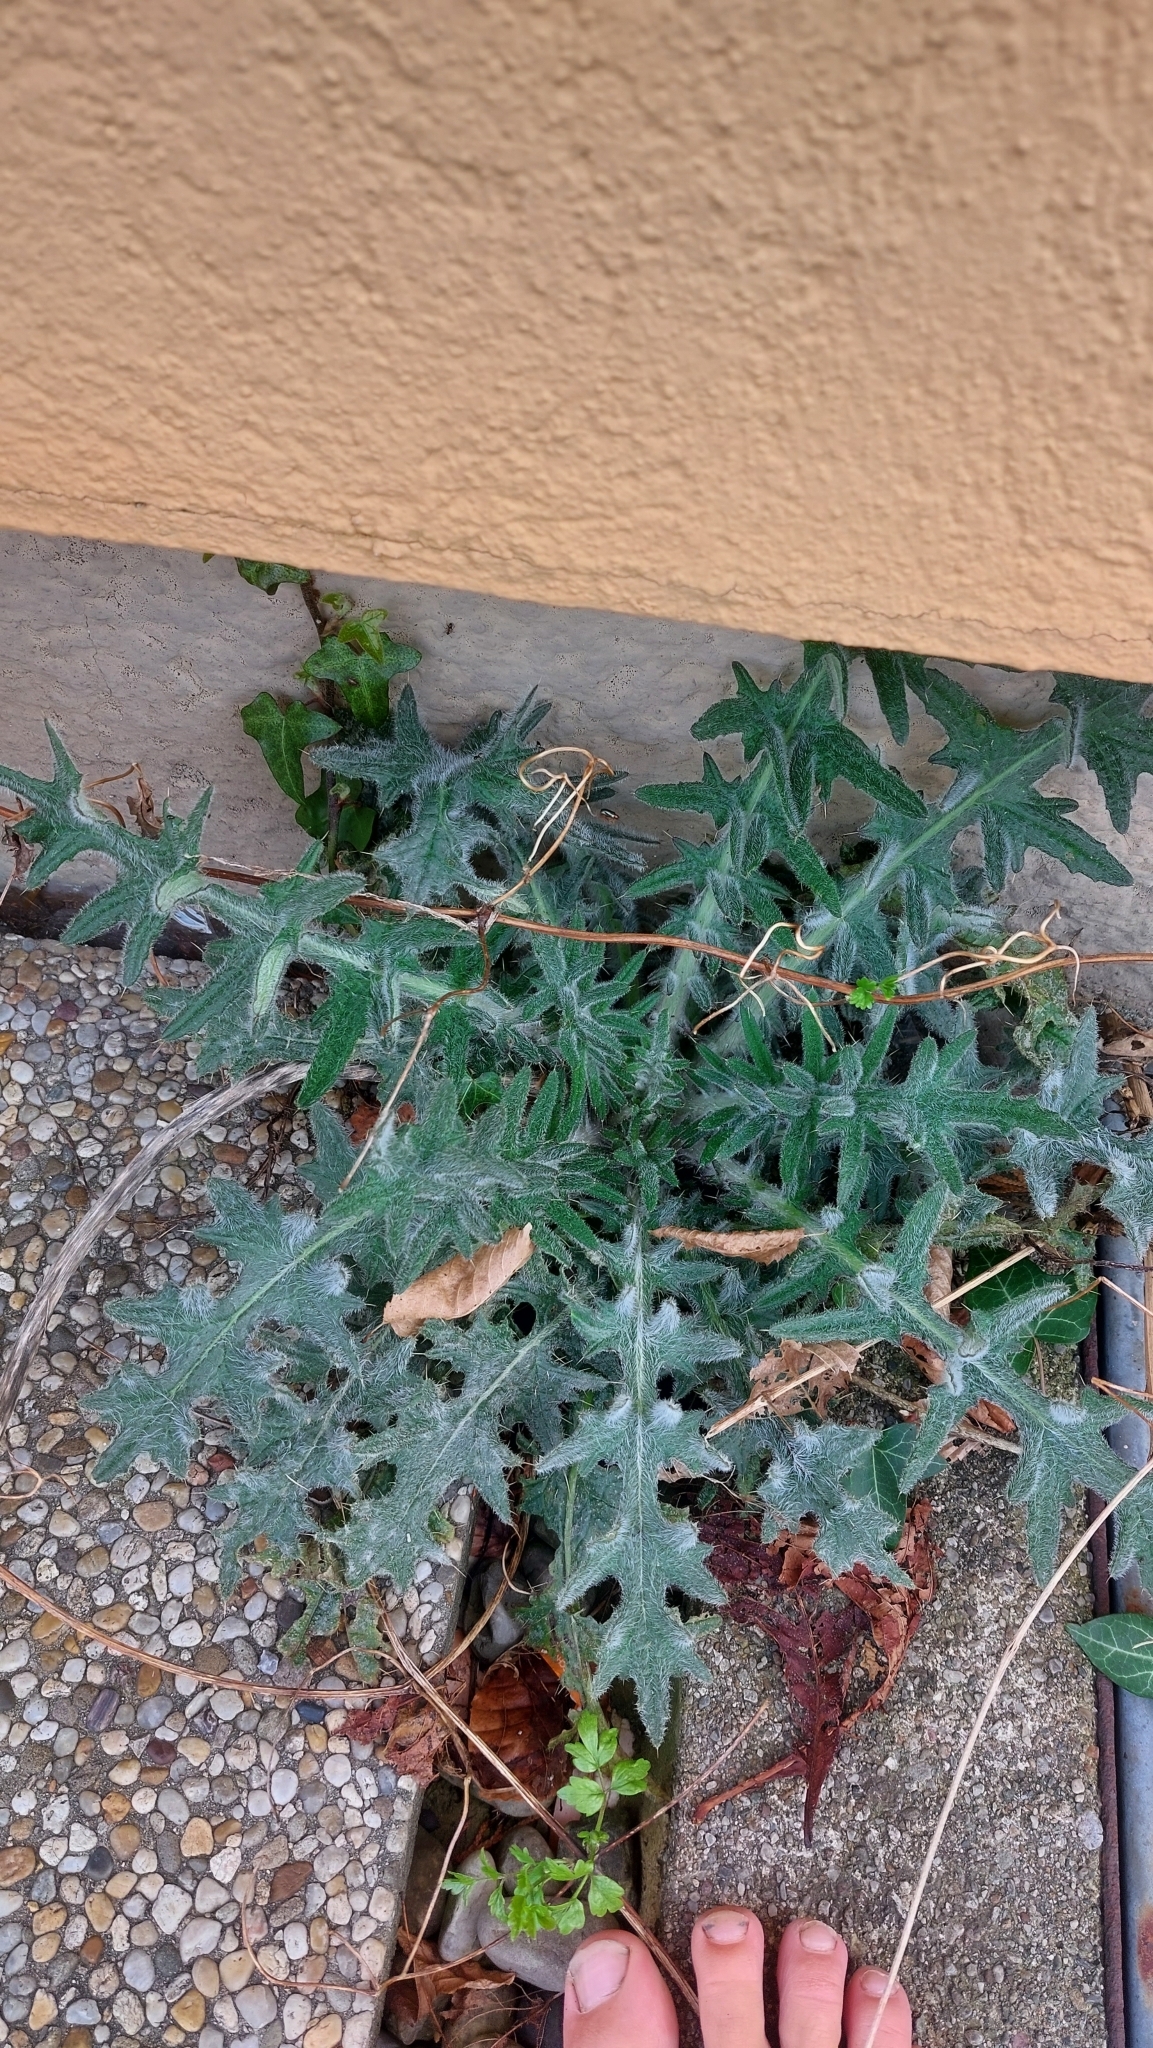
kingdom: Plantae
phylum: Tracheophyta
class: Magnoliopsida
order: Asterales
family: Asteraceae
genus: Cirsium
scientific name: Cirsium vulgare
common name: Bull thistle
